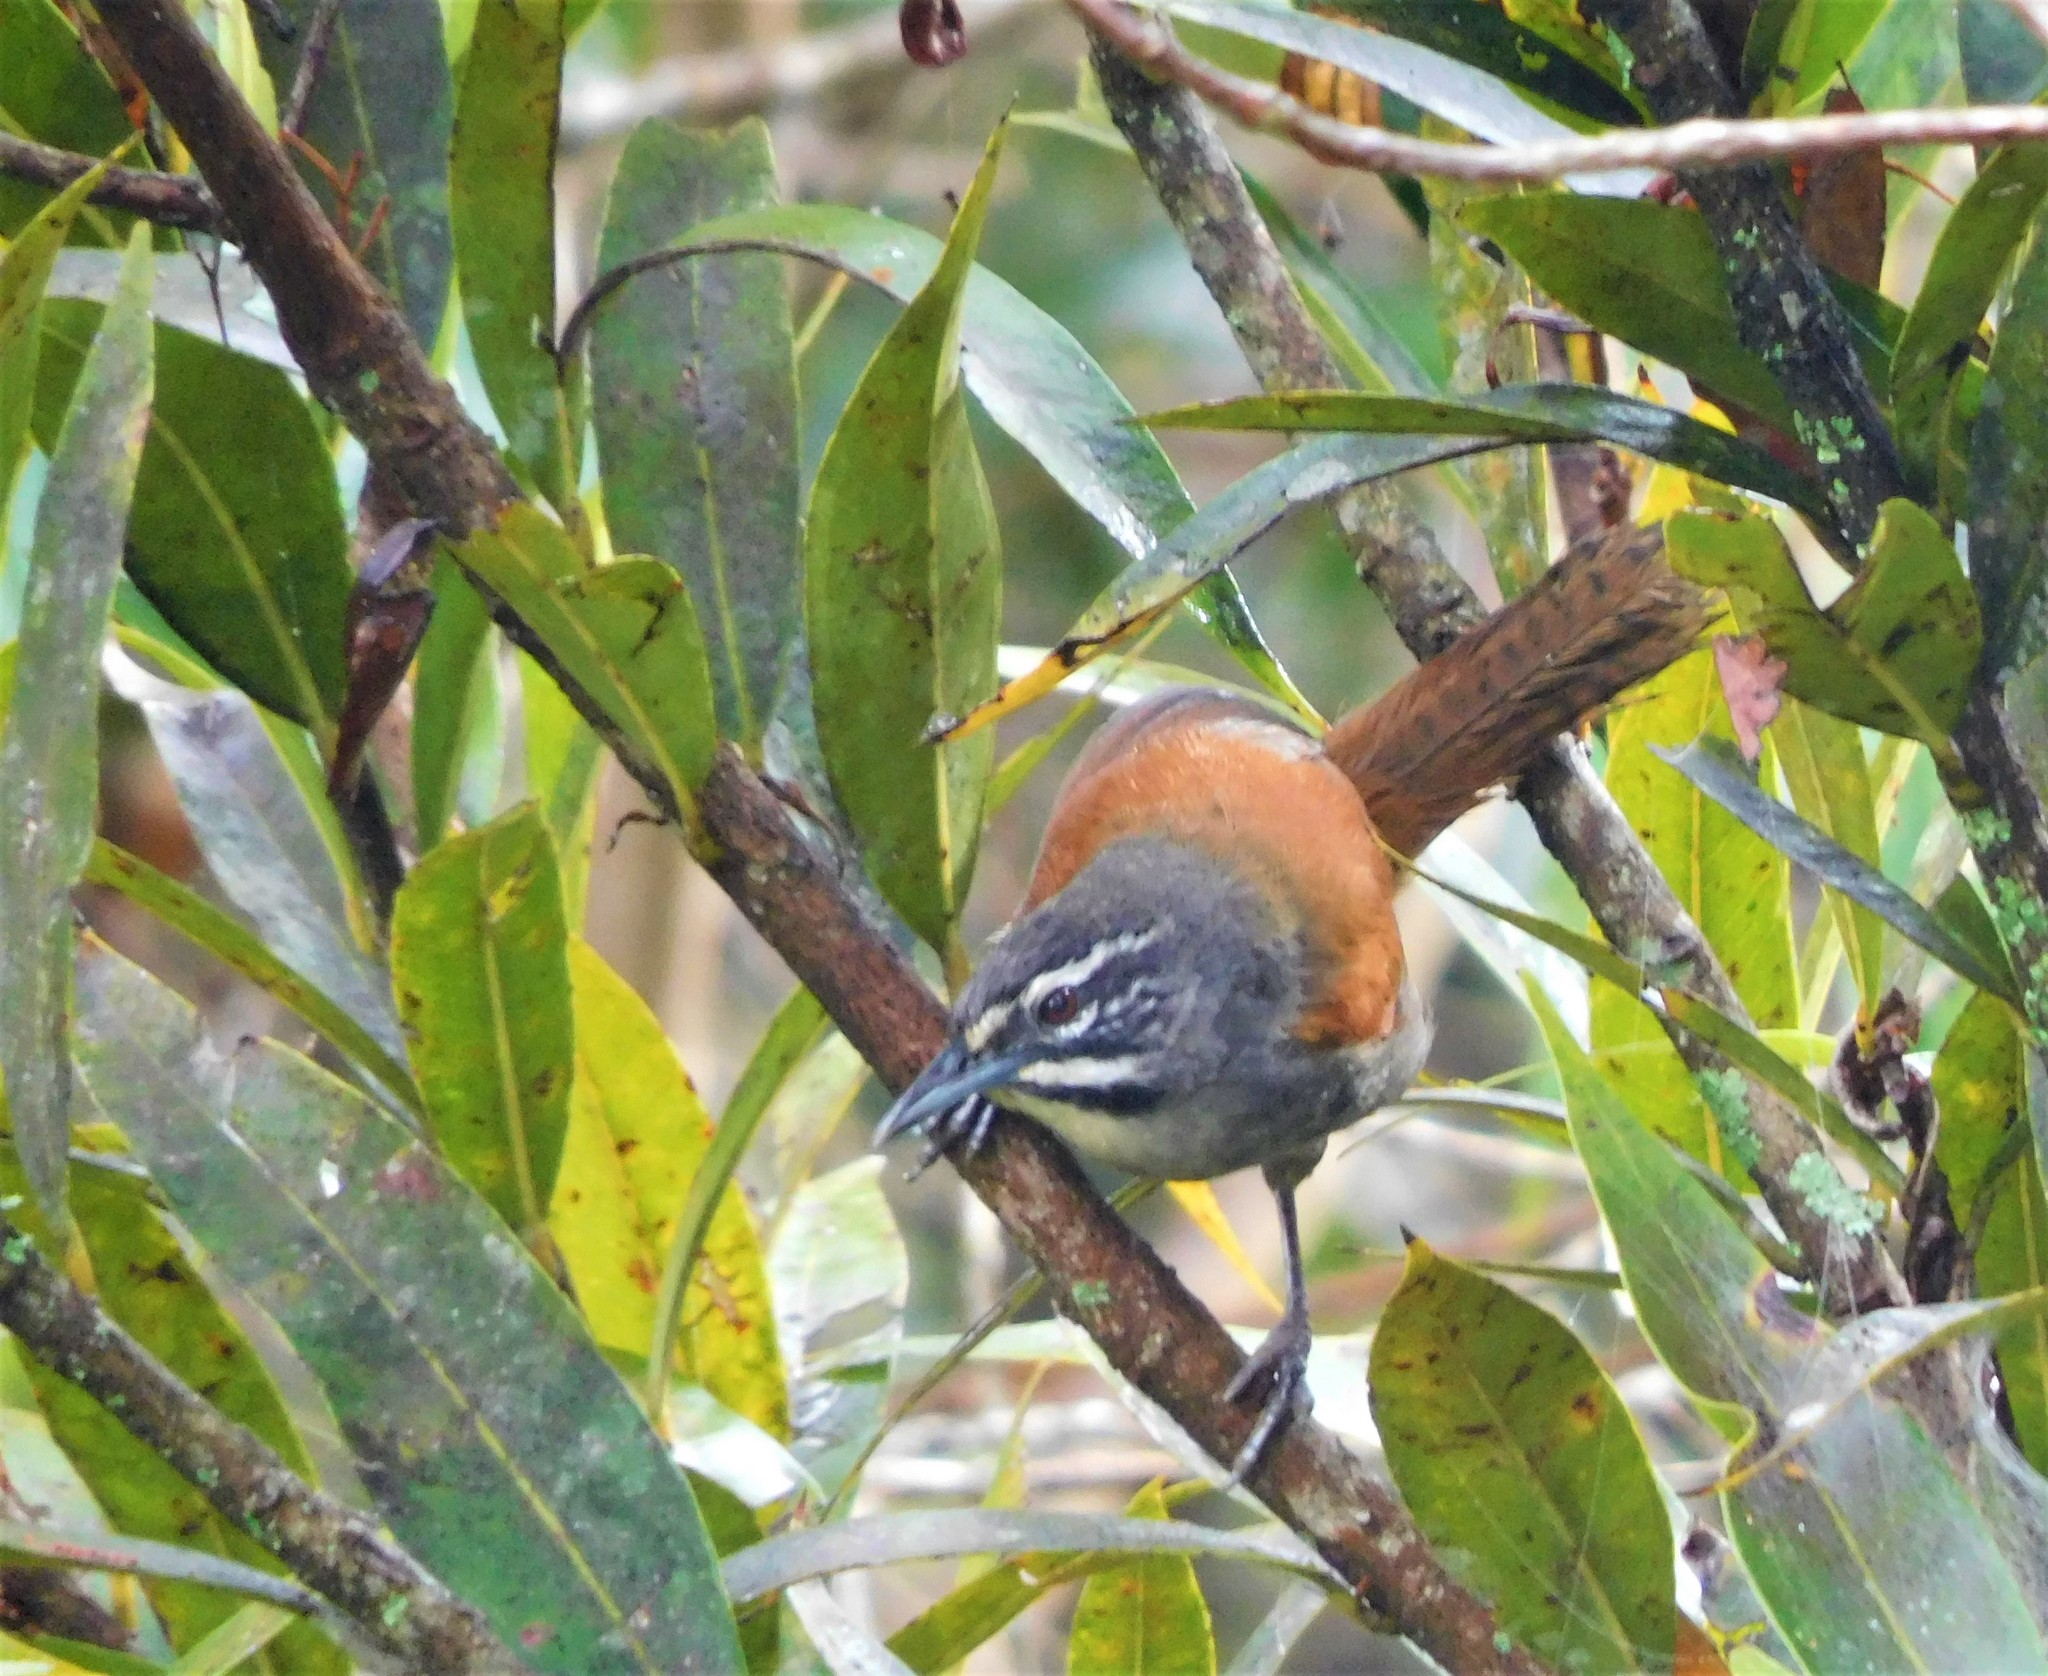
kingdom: Animalia
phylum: Chordata
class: Aves
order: Passeriformes
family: Troglodytidae
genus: Pheugopedius
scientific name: Pheugopedius mystacalis
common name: Whiskered wren
